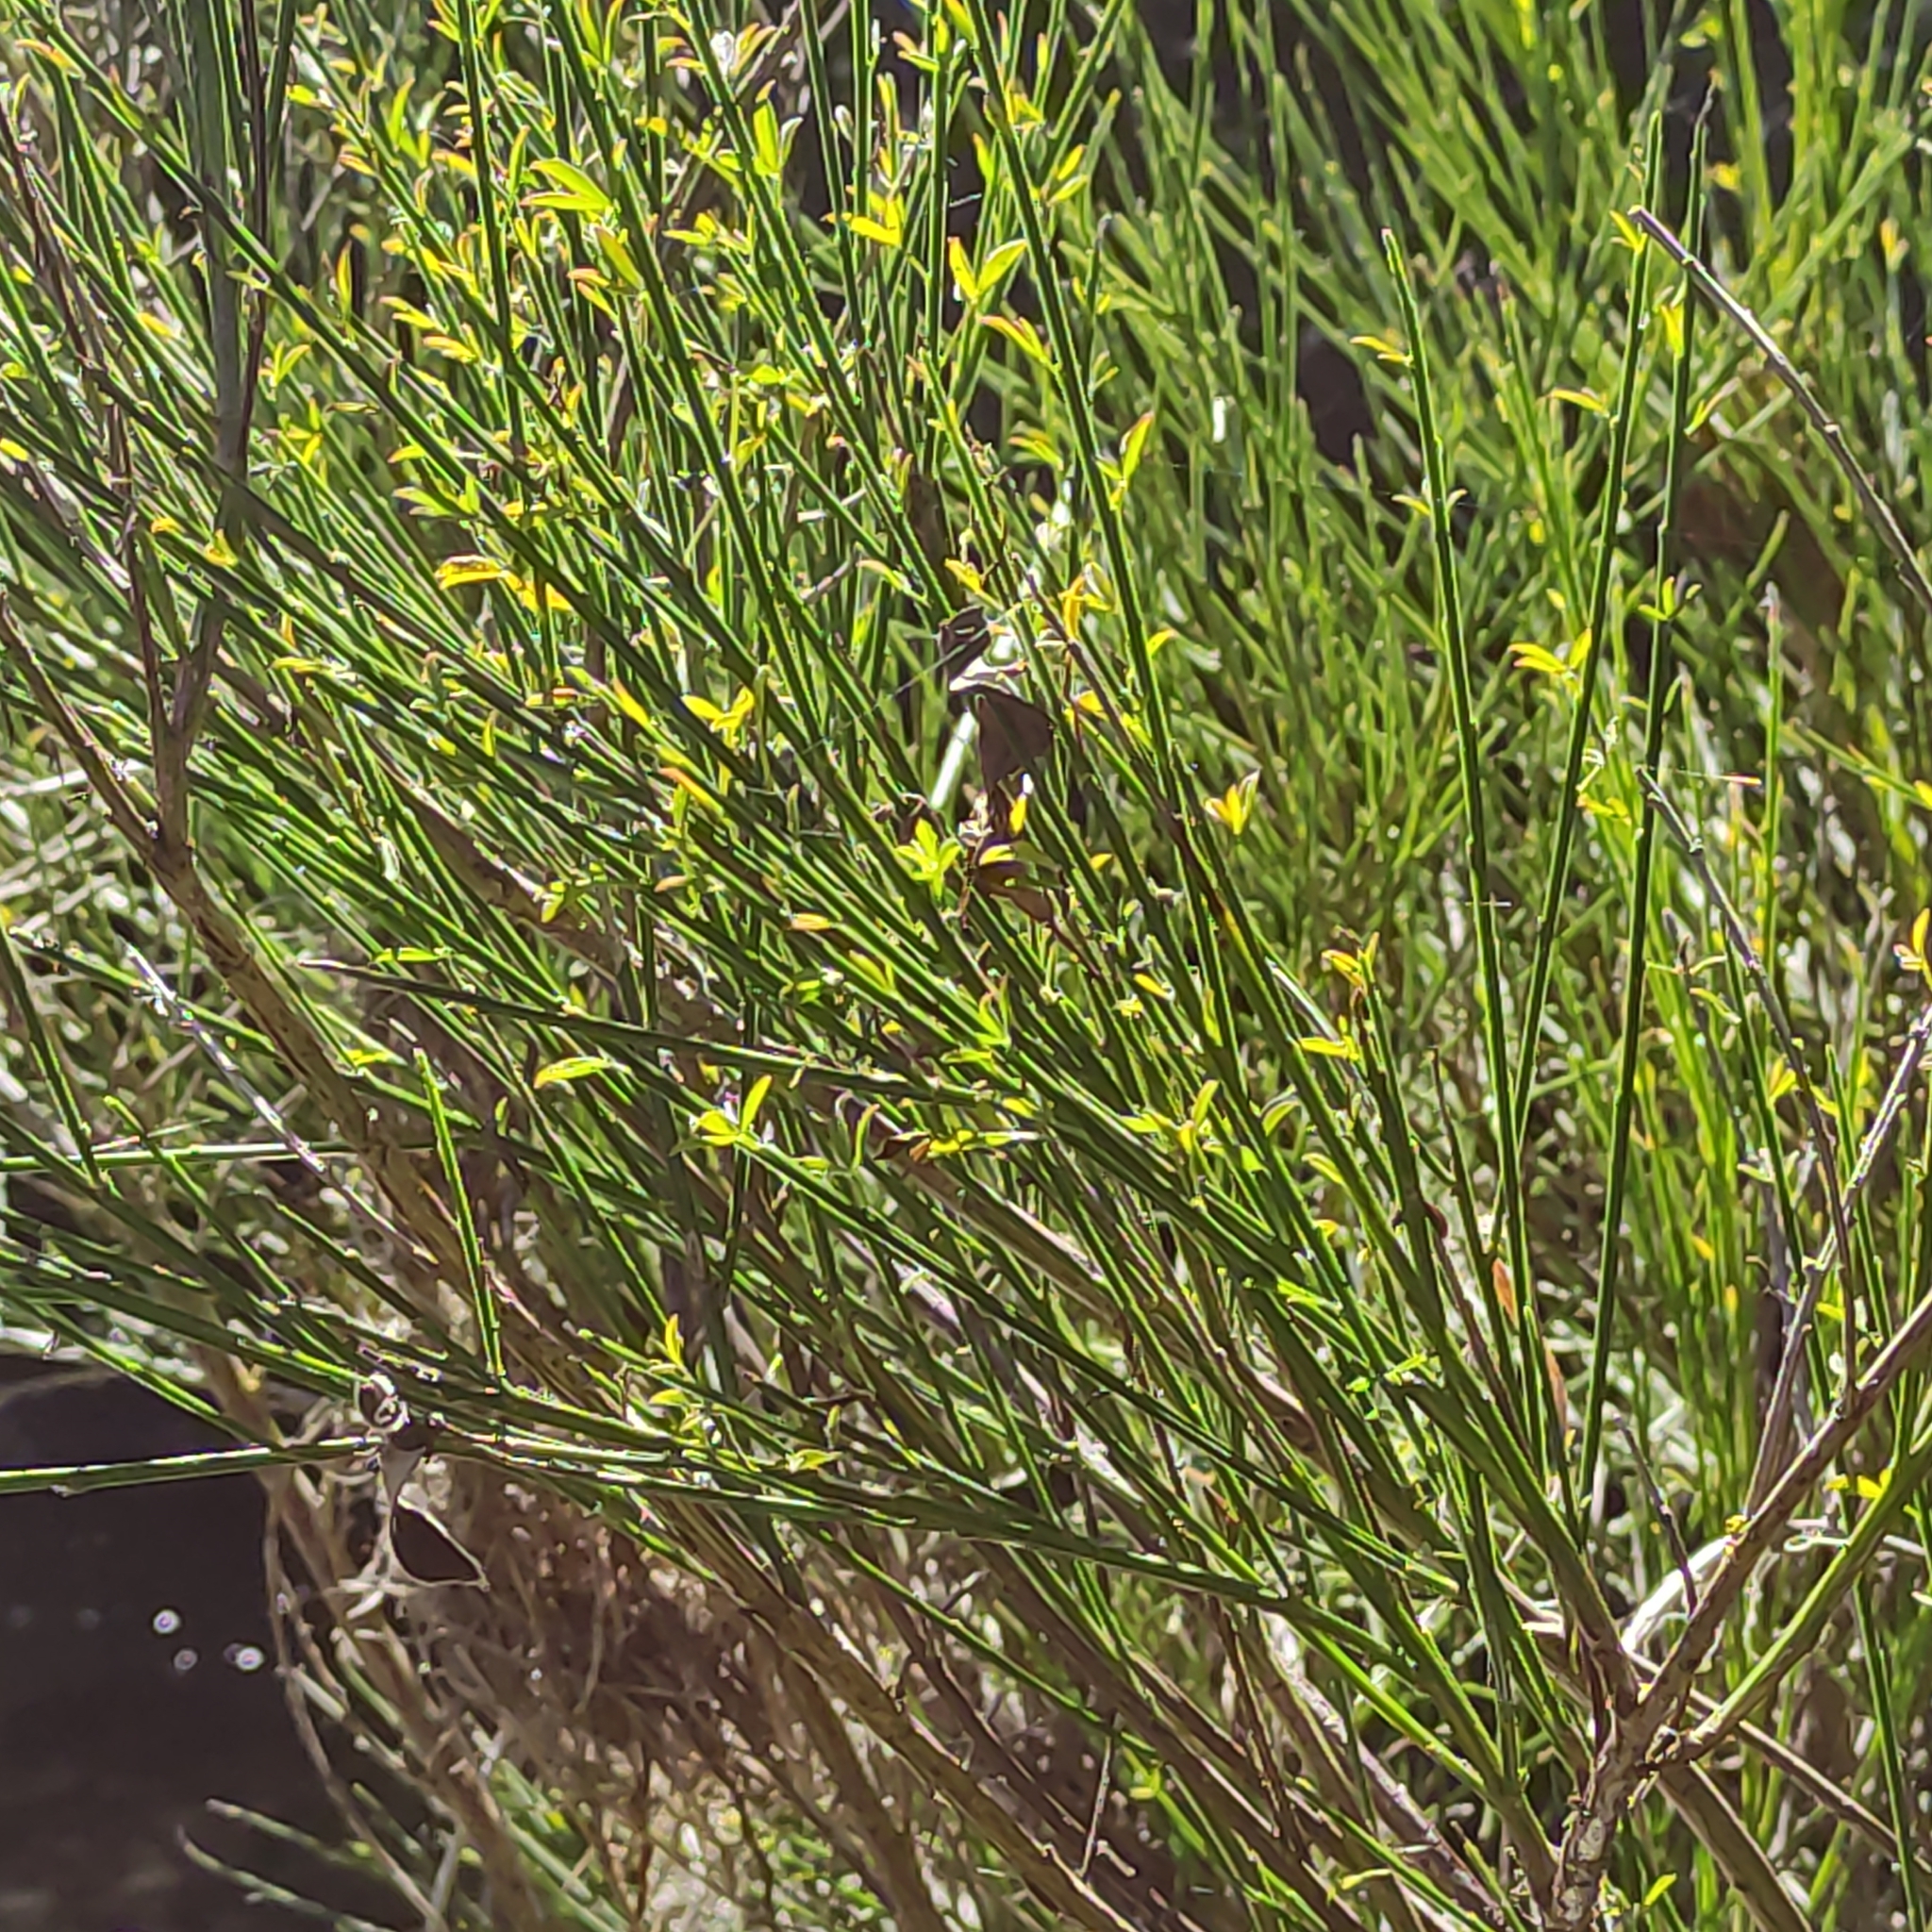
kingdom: Plantae
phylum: Tracheophyta
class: Magnoliopsida
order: Fabales
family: Fabaceae
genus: Cytisus
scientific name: Cytisus scoparius
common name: Scotch broom
